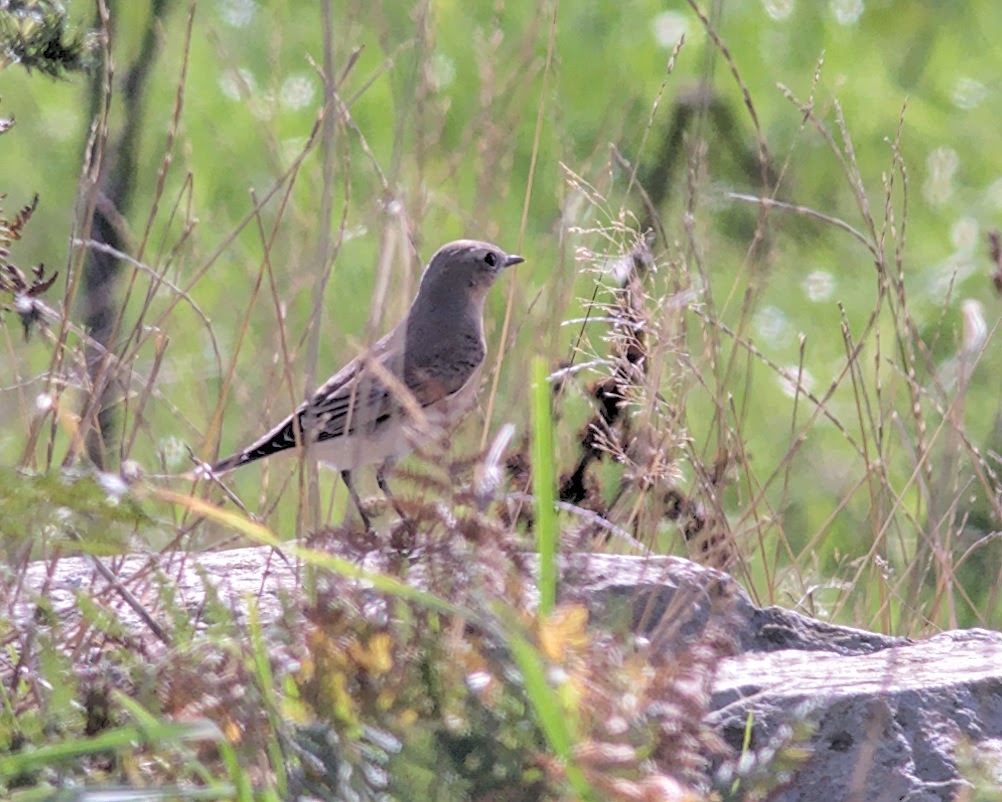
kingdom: Animalia
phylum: Chordata
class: Aves
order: Passeriformes
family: Muscicapidae
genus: Oenanthe
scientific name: Oenanthe oenanthe
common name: Northern wheatear
